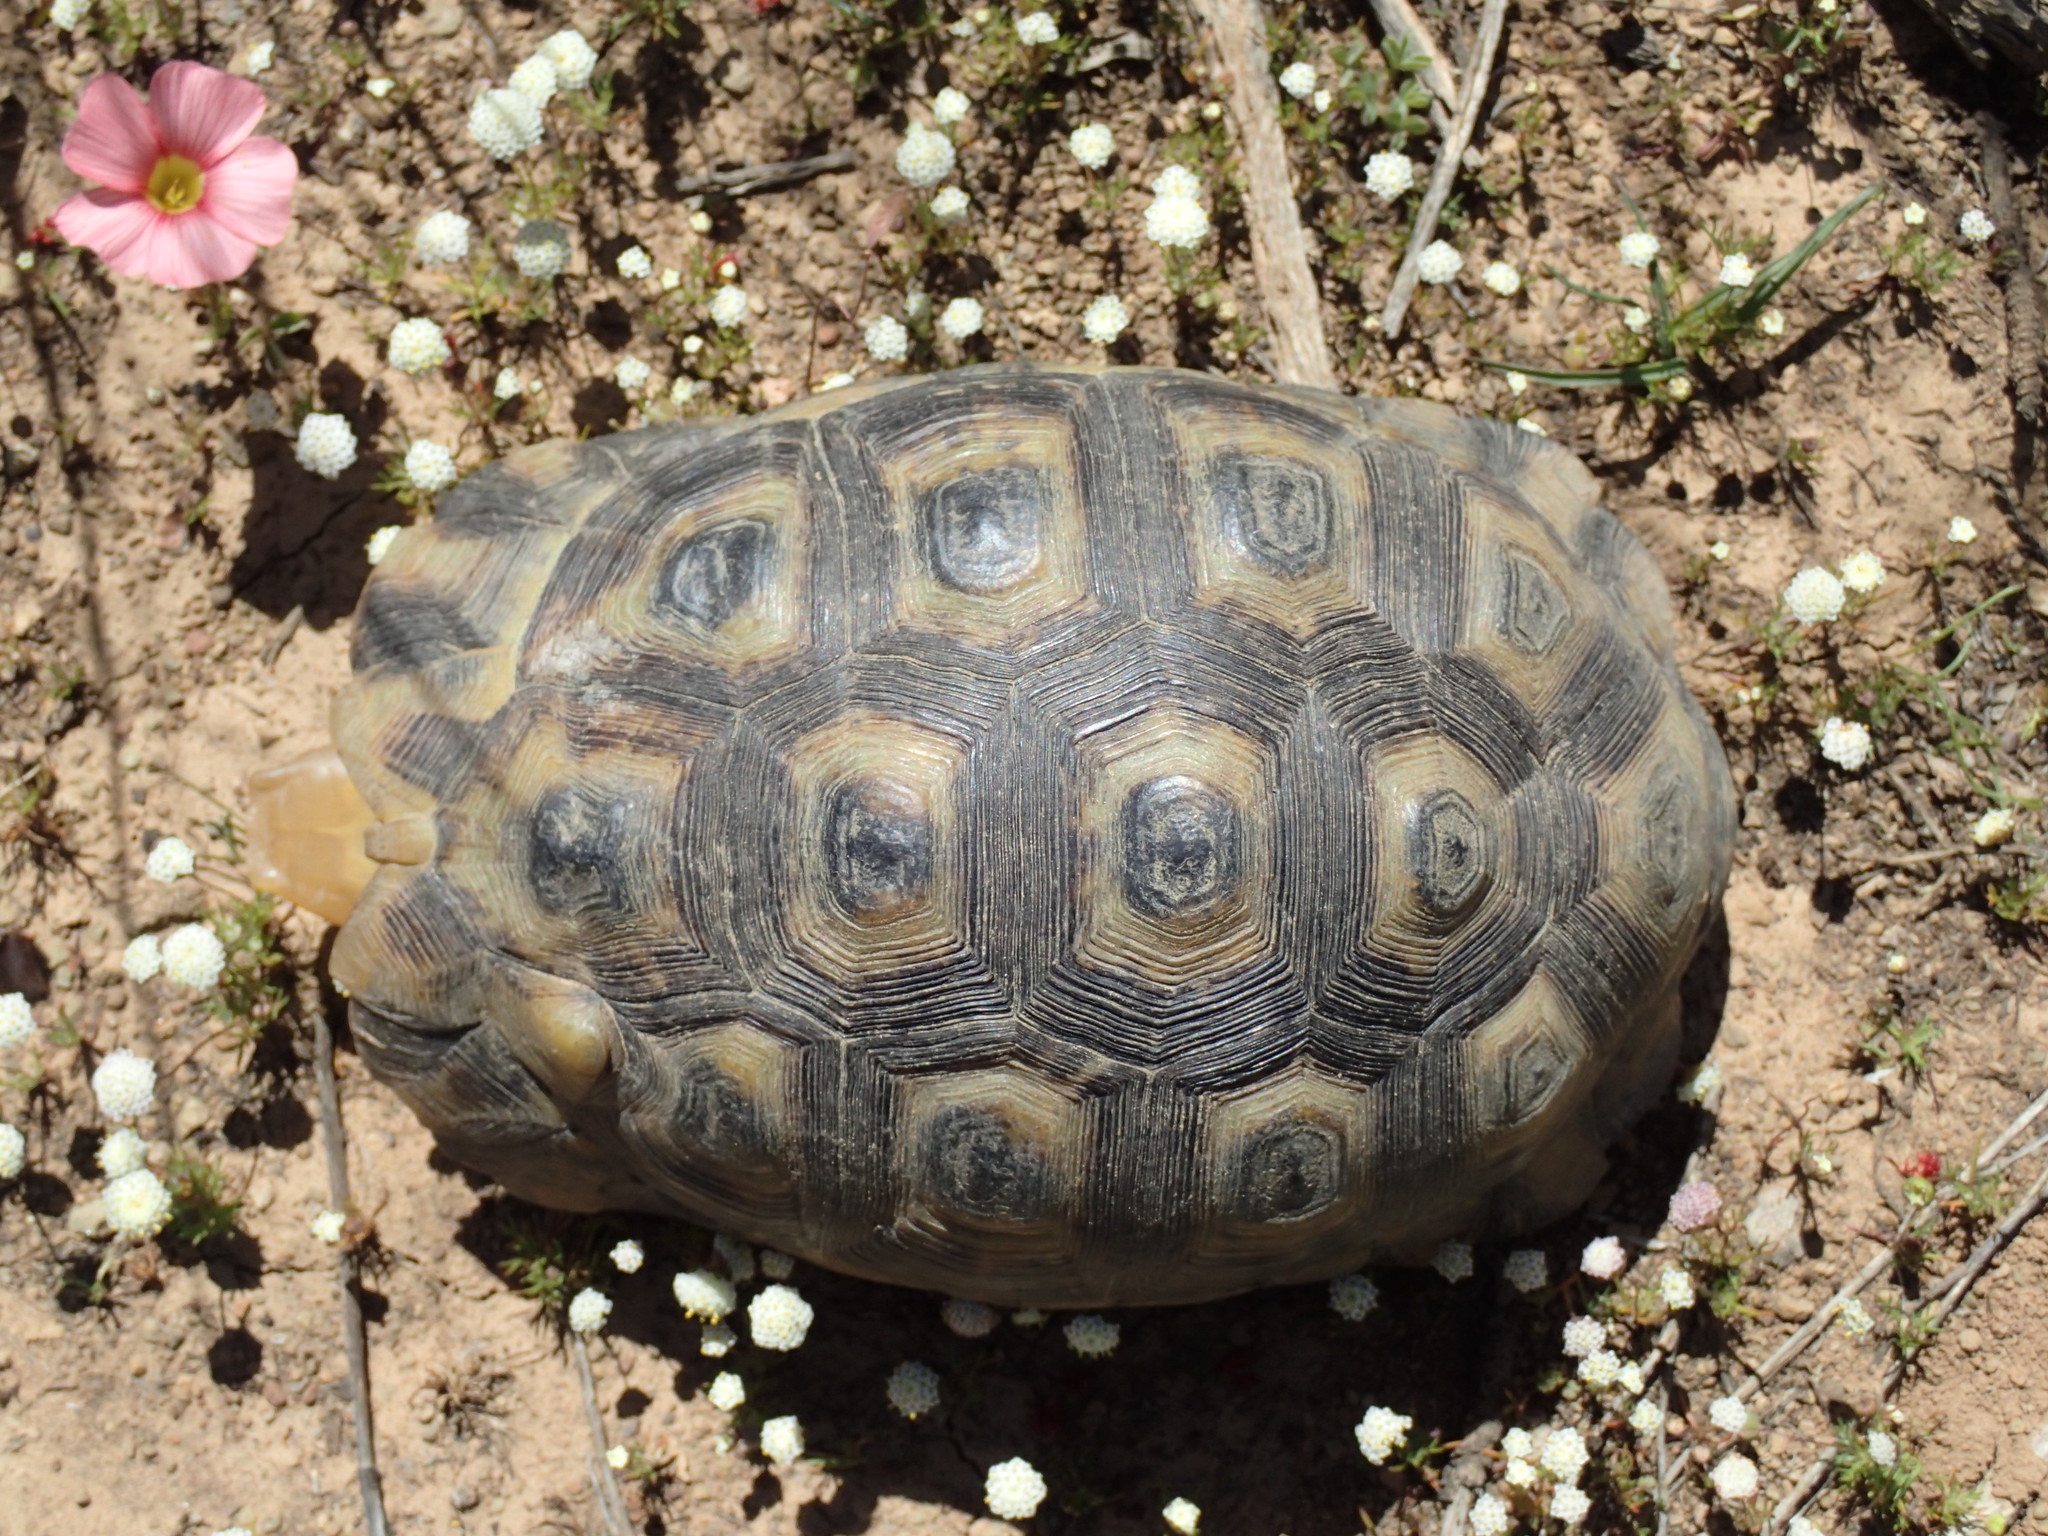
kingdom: Animalia
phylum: Chordata
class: Testudines
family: Testudinidae
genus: Chersina
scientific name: Chersina angulata
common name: South african bowsprit tortoise
